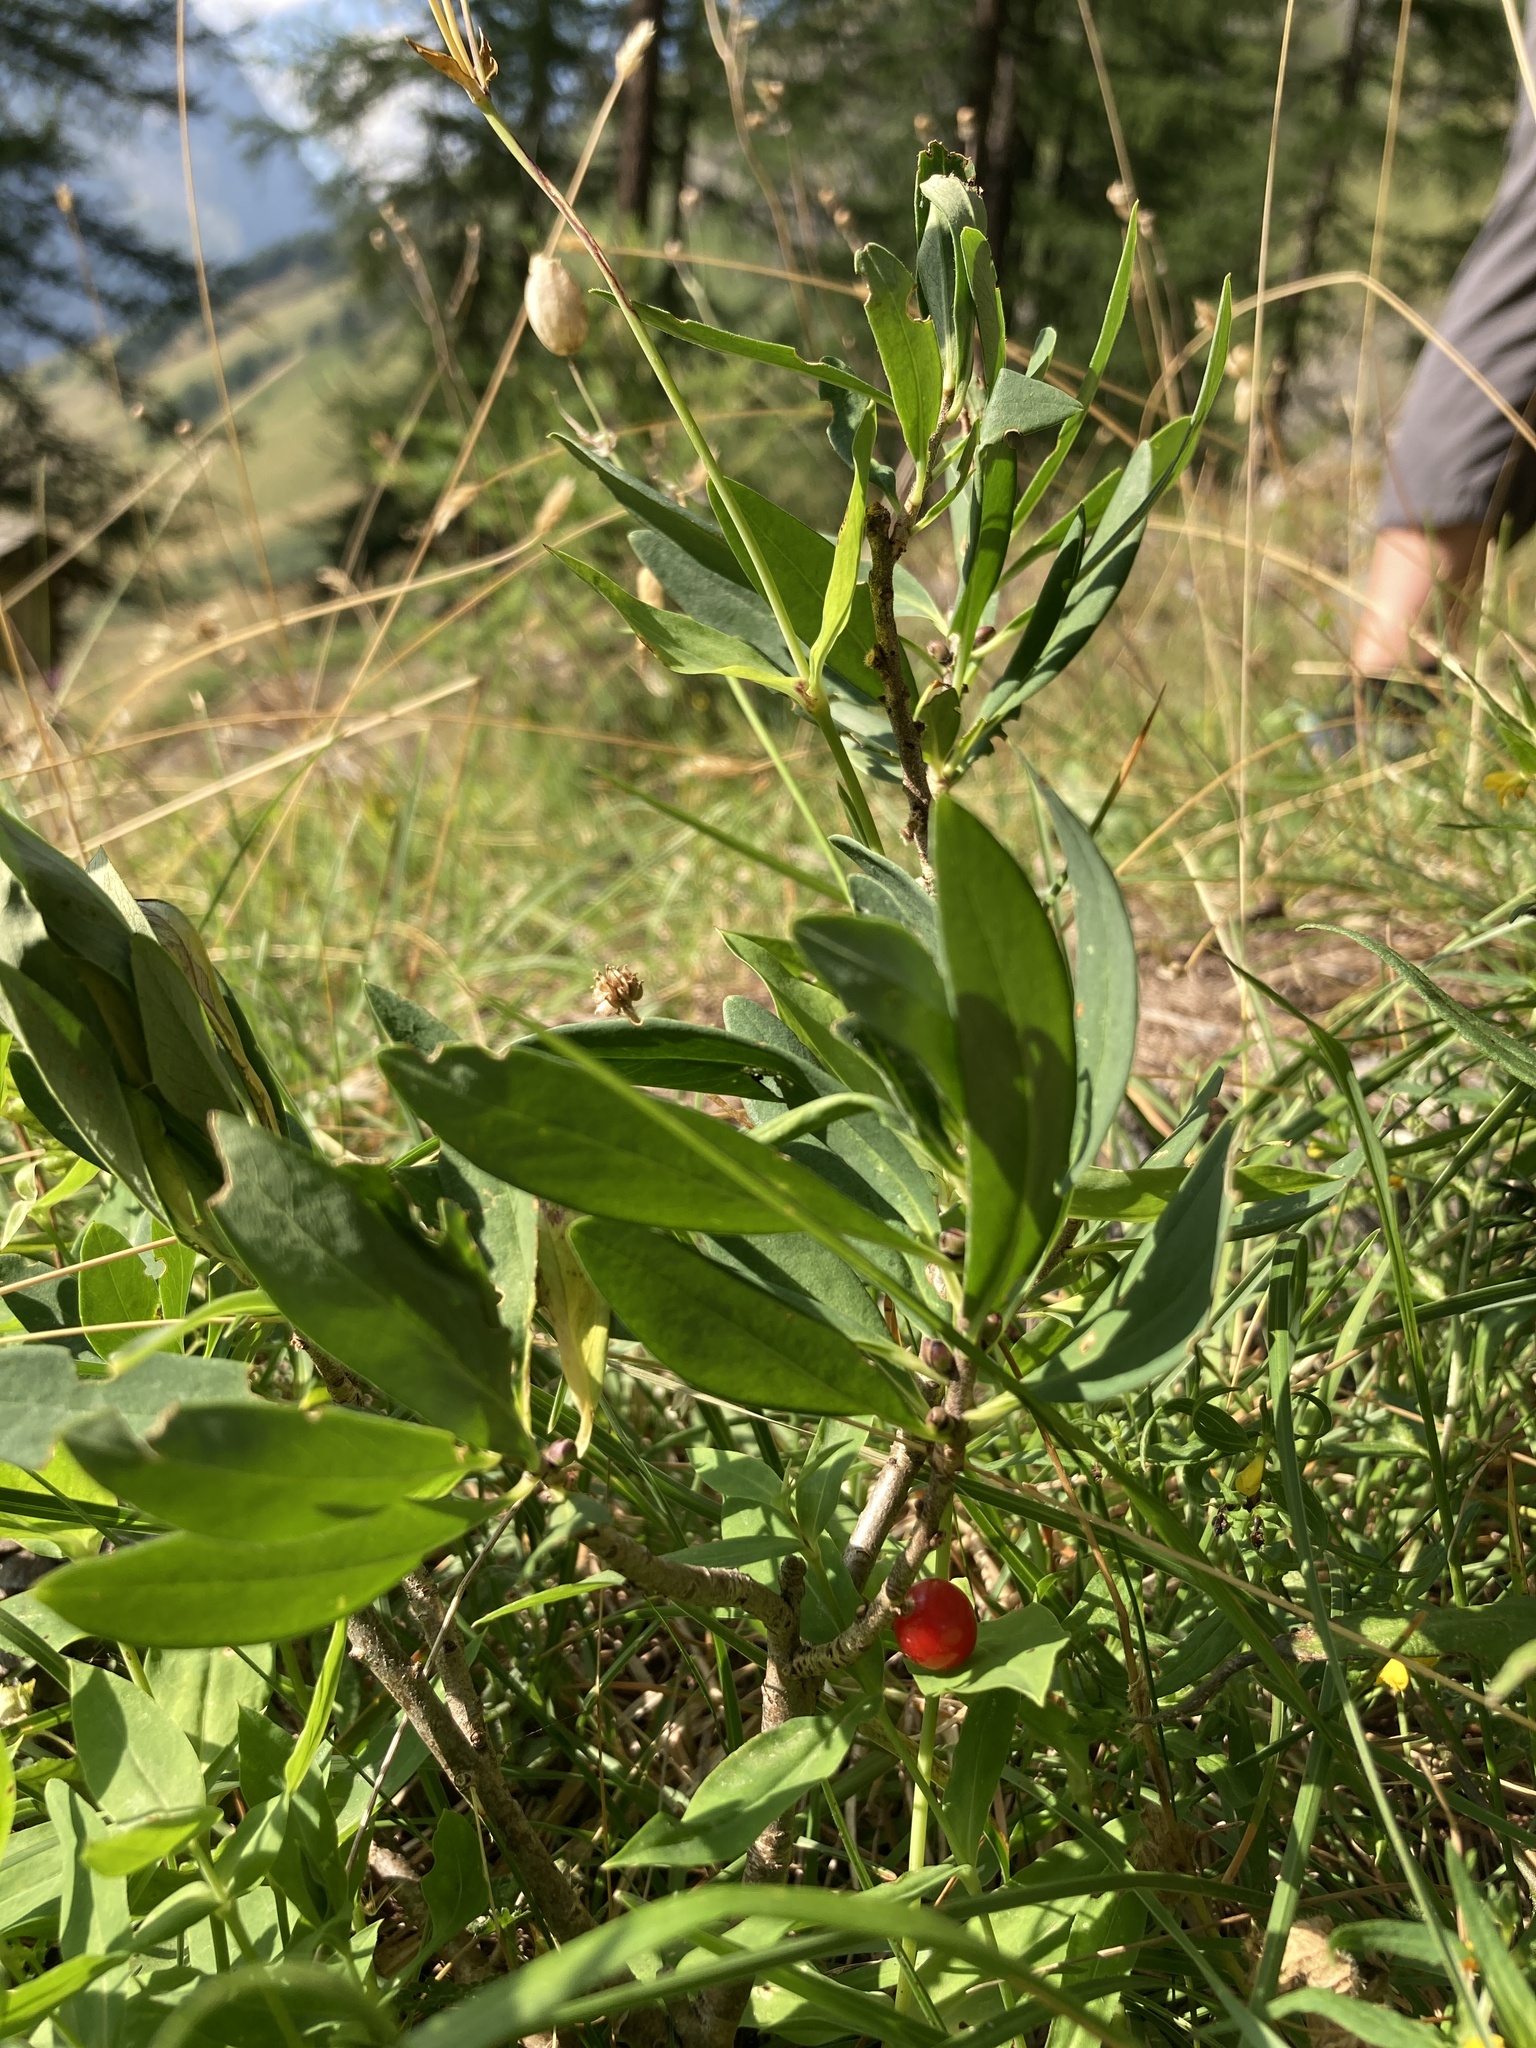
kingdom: Plantae
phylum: Tracheophyta
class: Magnoliopsida
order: Malvales
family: Thymelaeaceae
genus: Daphne
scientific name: Daphne mezereum
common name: Mezereon
